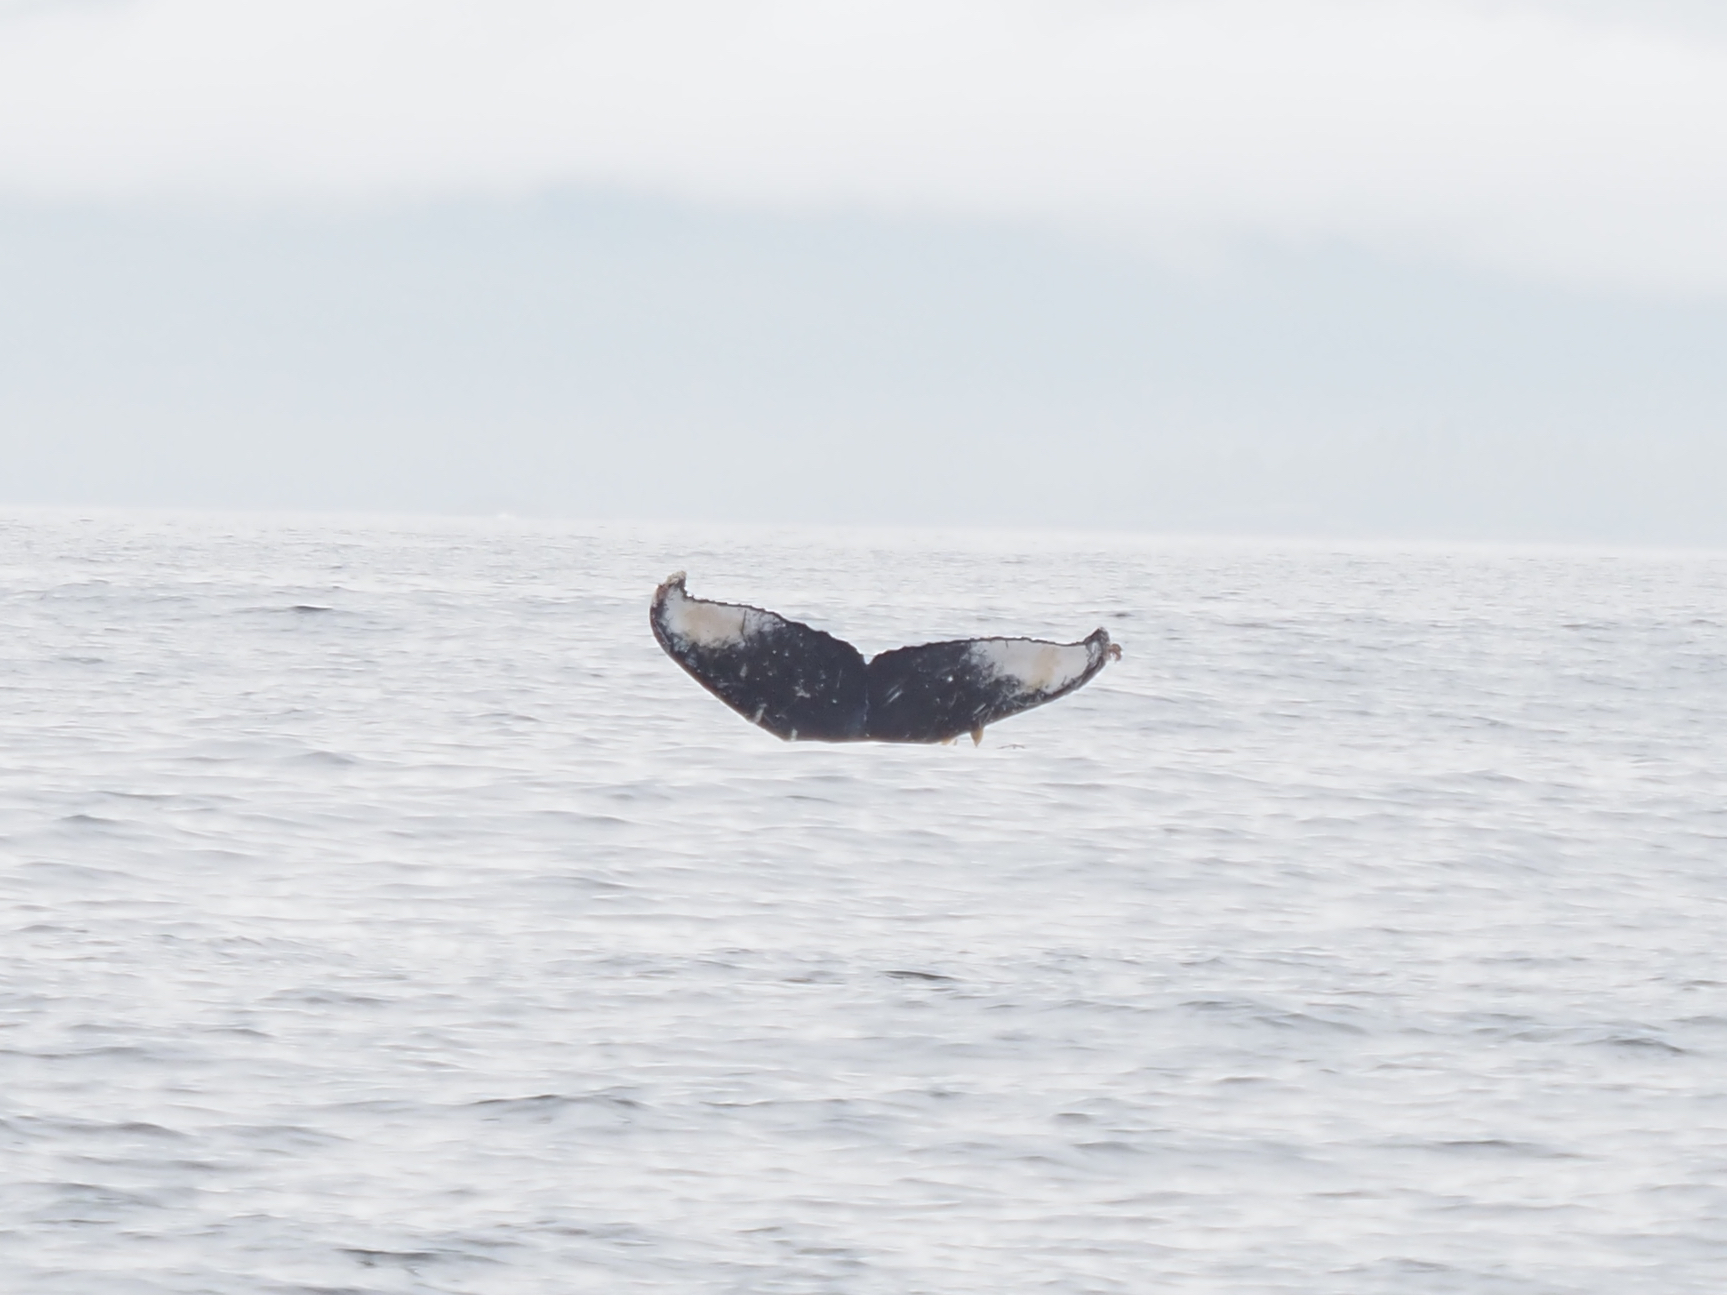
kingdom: Animalia
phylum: Chordata
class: Mammalia
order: Cetacea
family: Balaenopteridae
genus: Megaptera
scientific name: Megaptera novaeangliae
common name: Humpback whale
